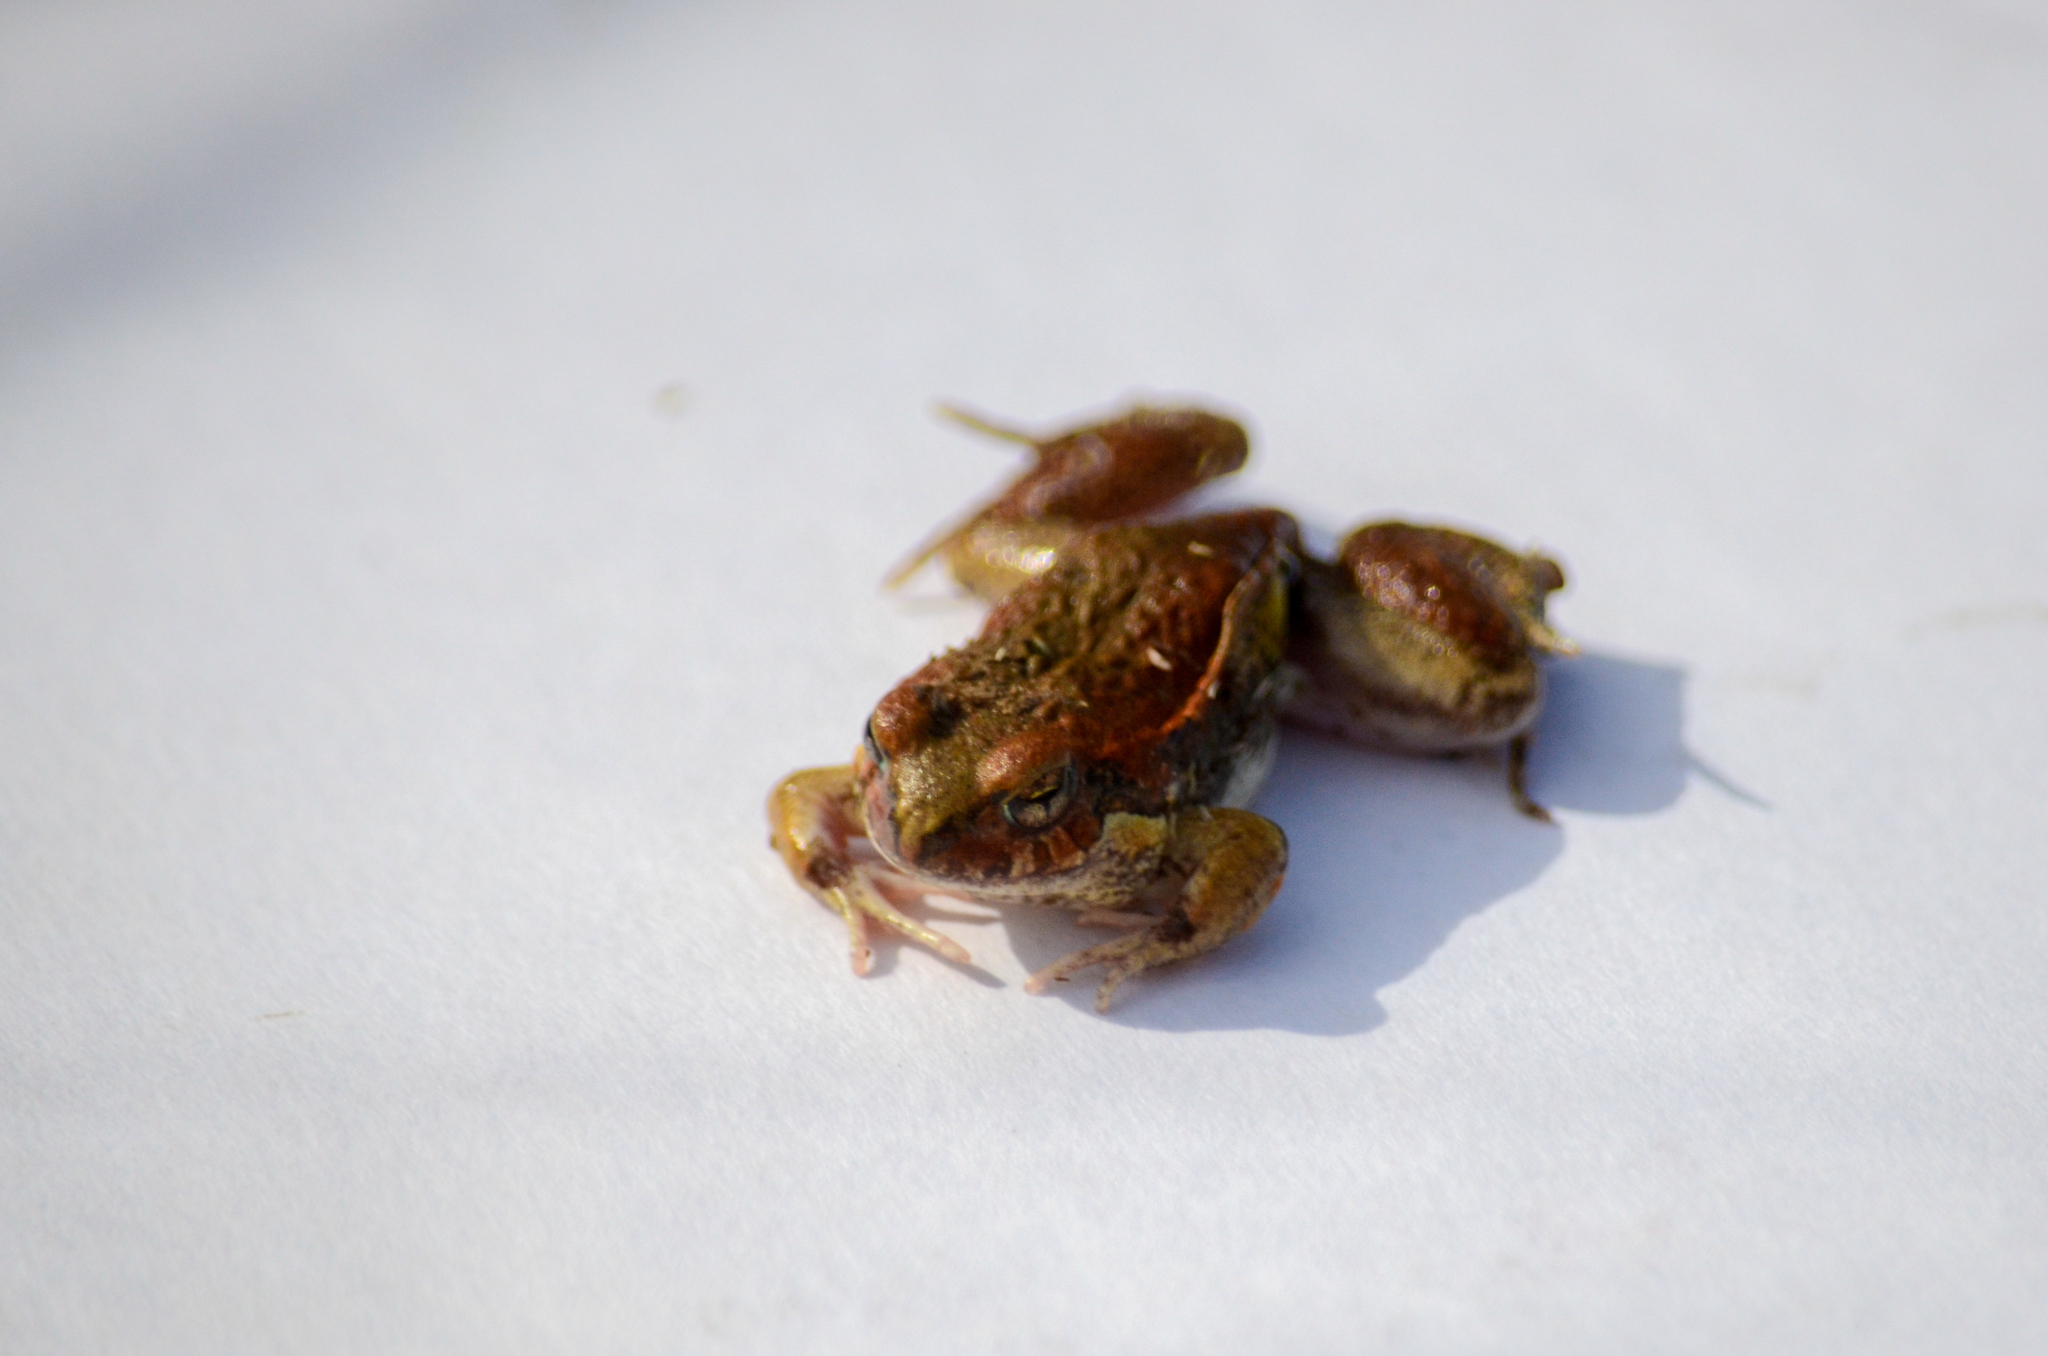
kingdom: Animalia
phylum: Chordata
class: Amphibia
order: Anura
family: Leptodactylidae
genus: Physalaemus
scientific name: Physalaemus biligonigerus
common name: Weeping frog
